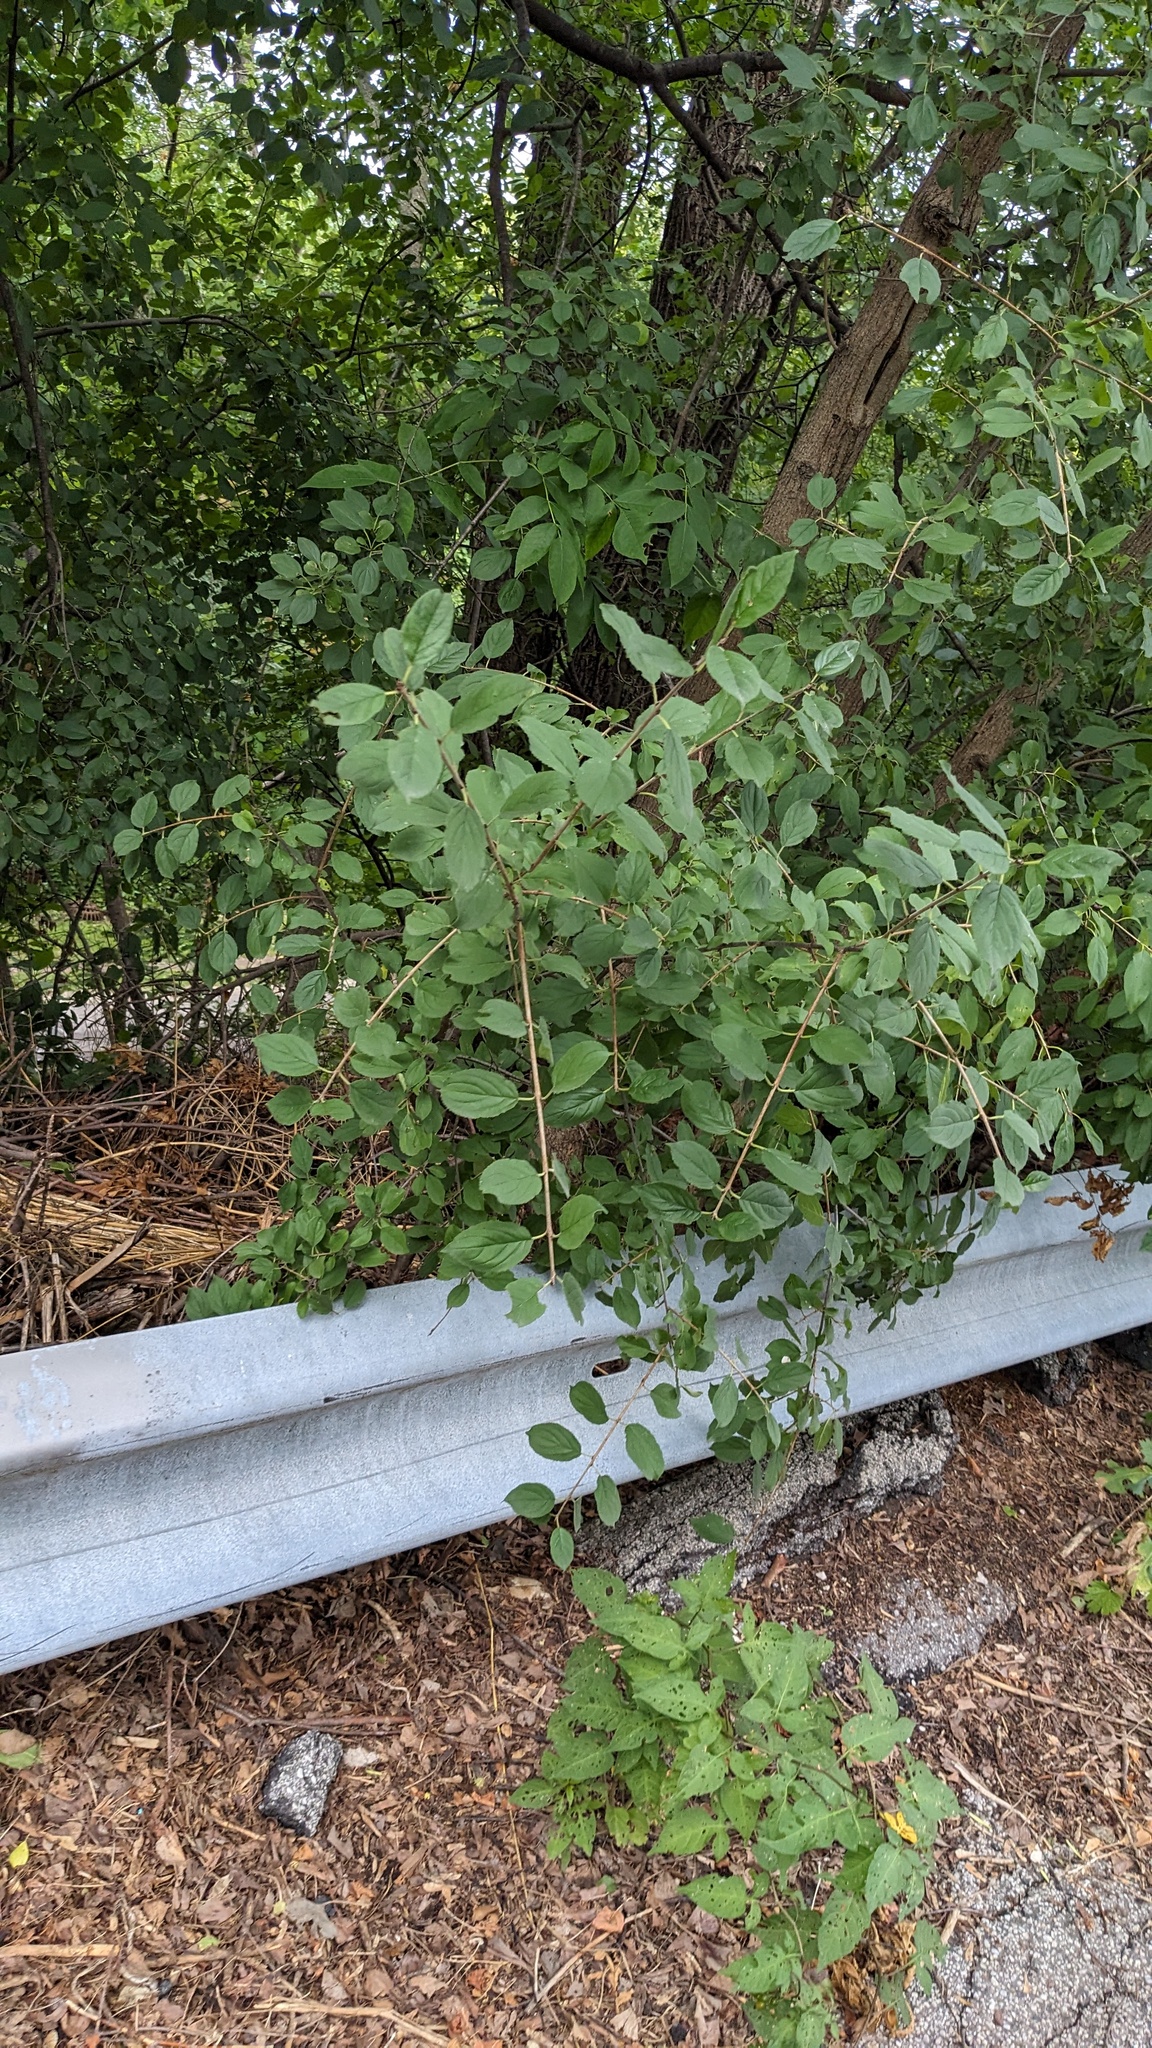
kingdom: Plantae
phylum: Tracheophyta
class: Magnoliopsida
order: Rosales
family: Rhamnaceae
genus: Rhamnus
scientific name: Rhamnus cathartica
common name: Common buckthorn
